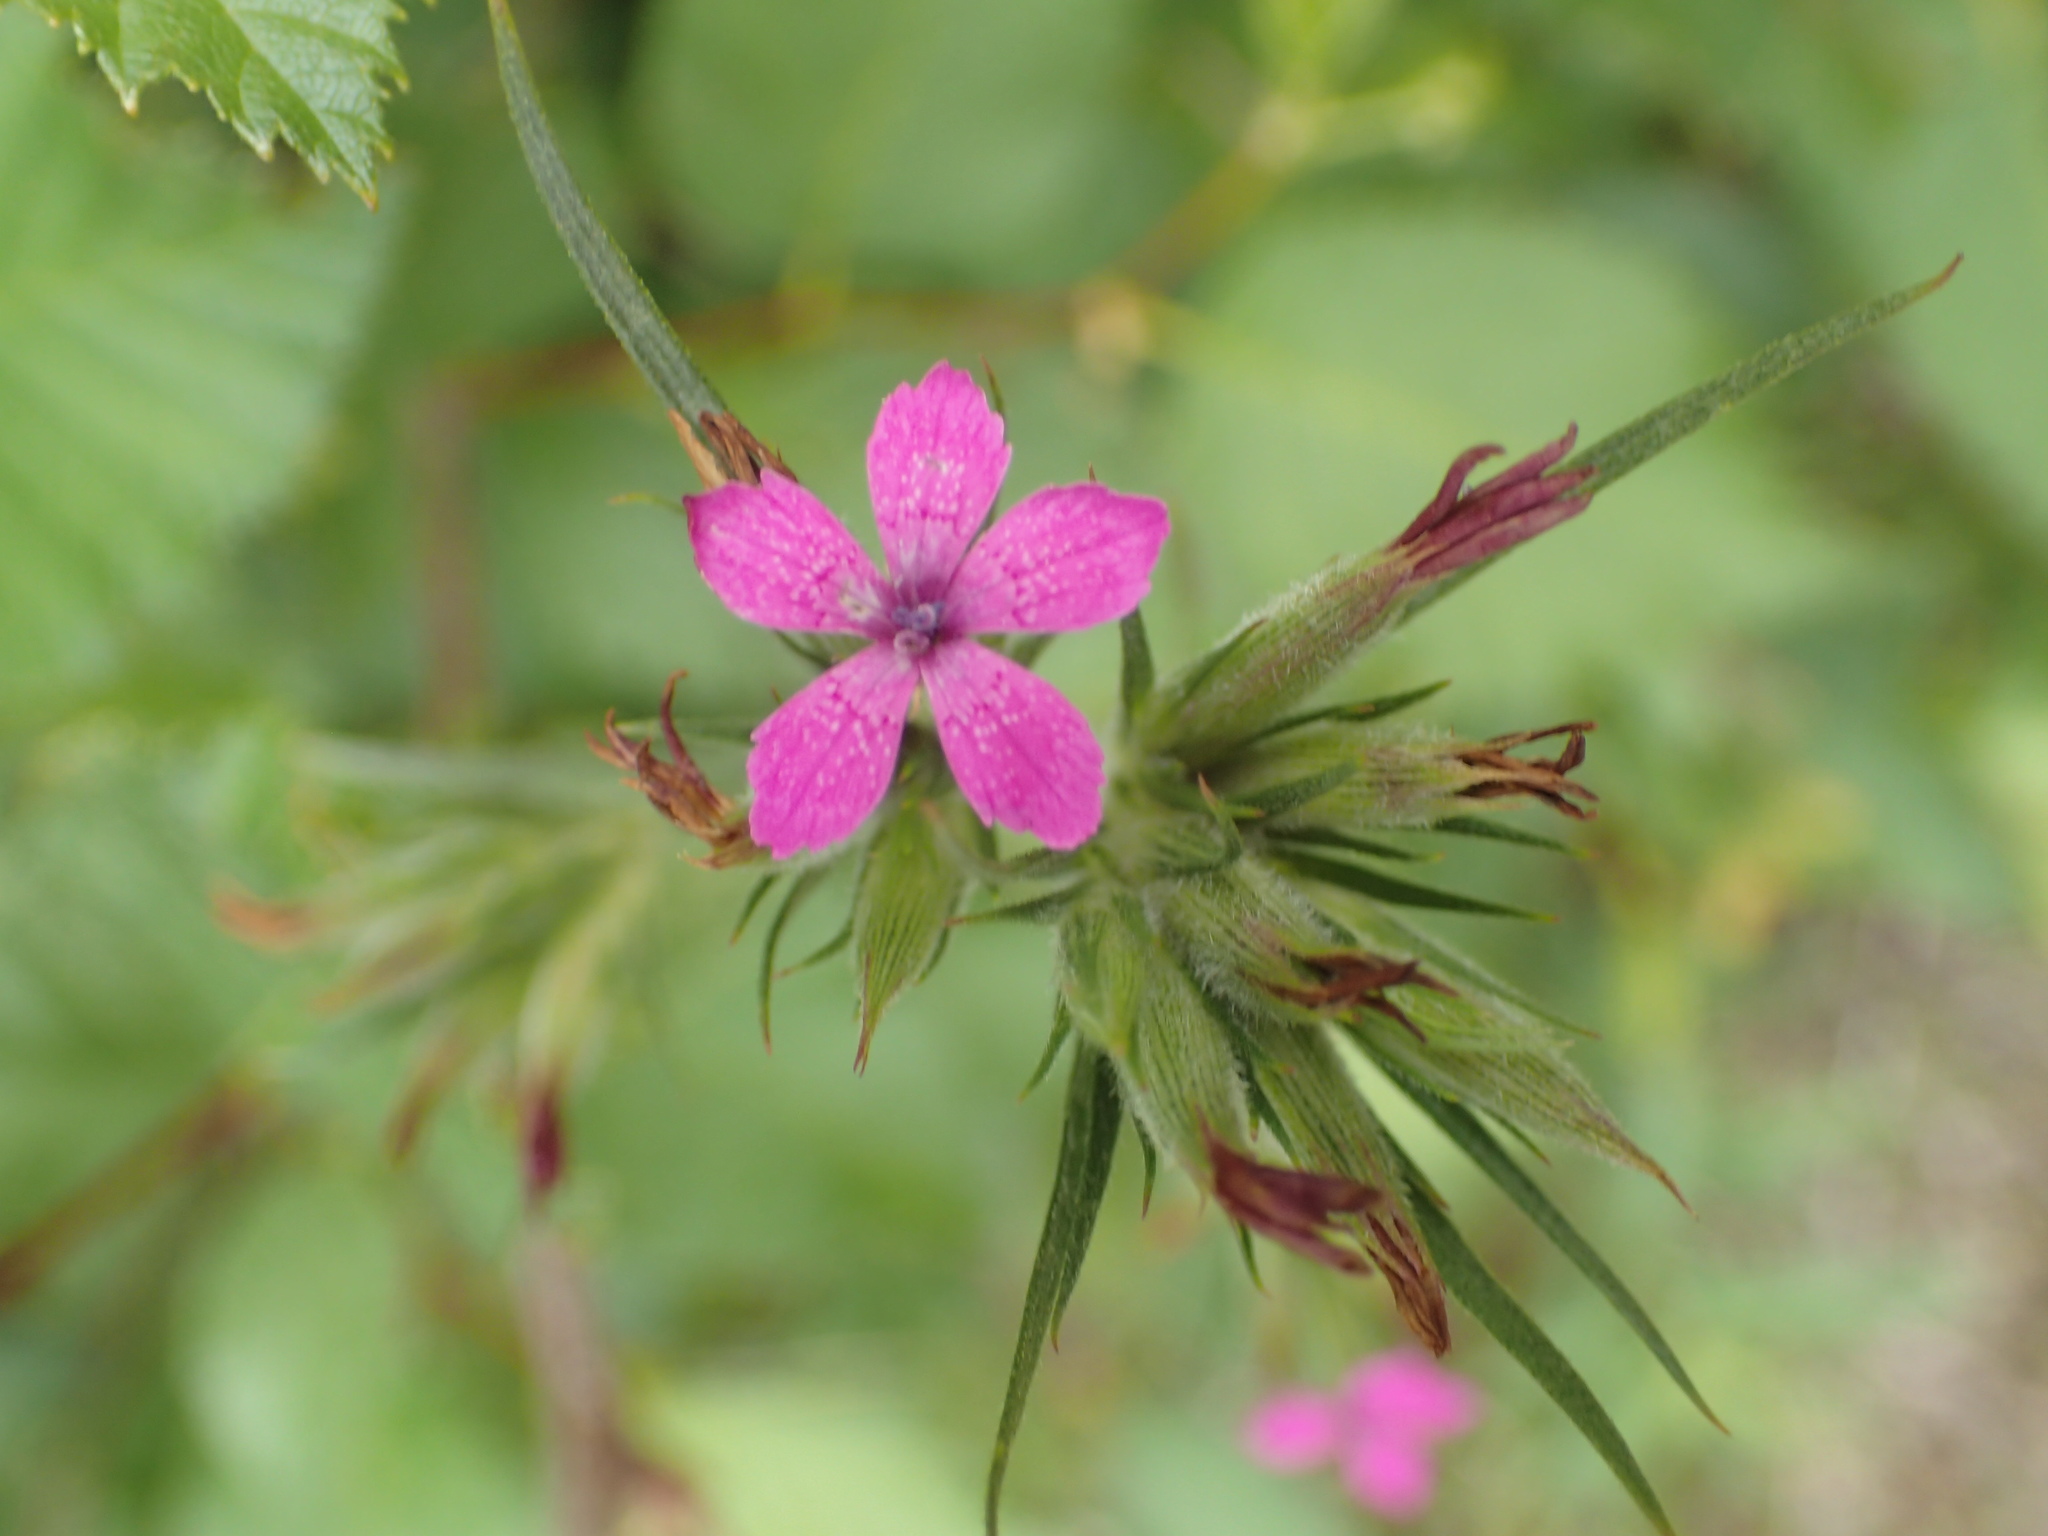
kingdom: Plantae
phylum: Tracheophyta
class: Magnoliopsida
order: Caryophyllales
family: Caryophyllaceae
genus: Dianthus
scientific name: Dianthus armeria
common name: Deptford pink
